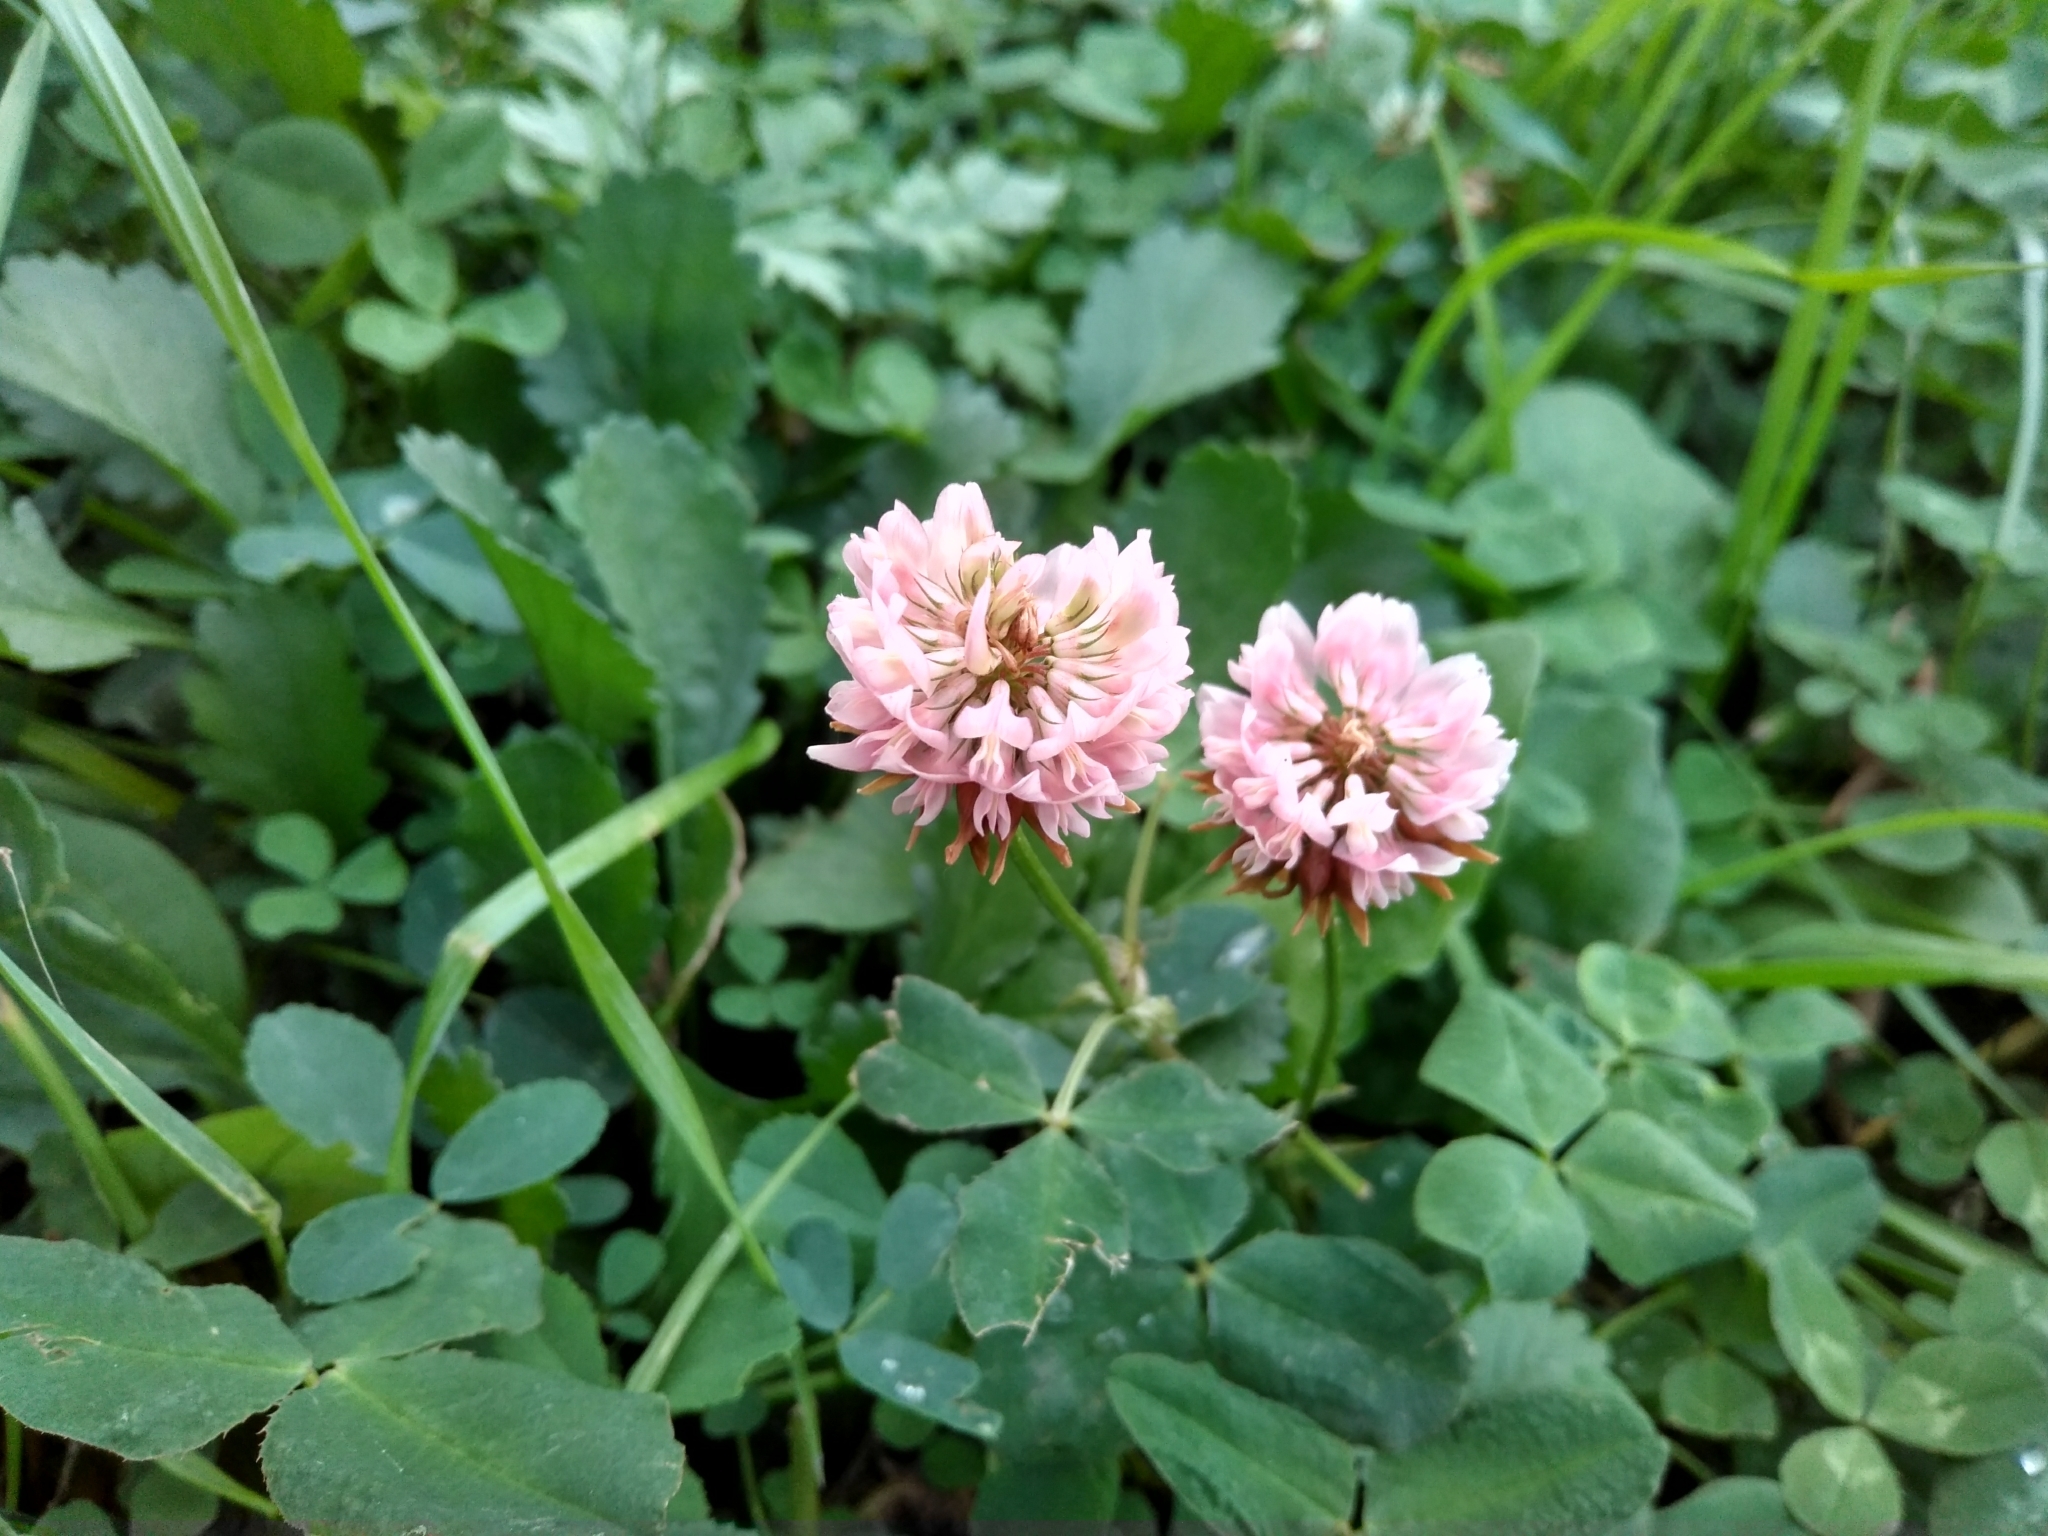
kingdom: Plantae
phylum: Tracheophyta
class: Magnoliopsida
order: Fabales
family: Fabaceae
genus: Trifolium
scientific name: Trifolium hybridum
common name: Alsike clover
